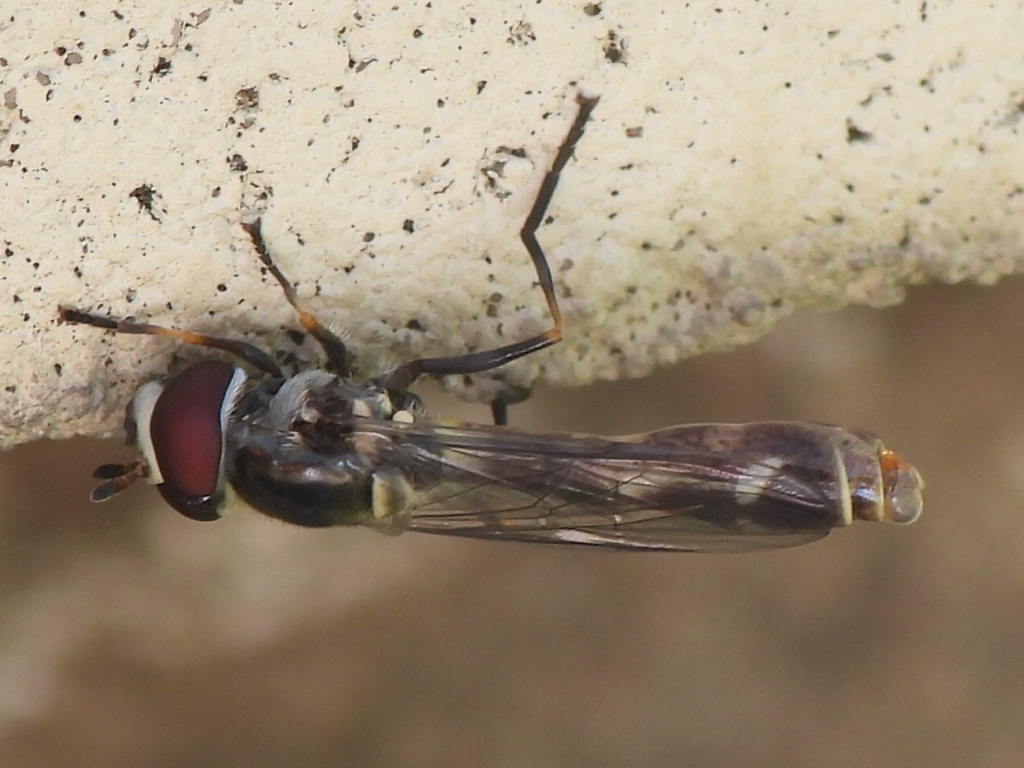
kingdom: Animalia
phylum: Arthropoda
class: Insecta
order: Diptera
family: Syrphidae
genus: Dioprosopa
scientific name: Dioprosopa clavatus
